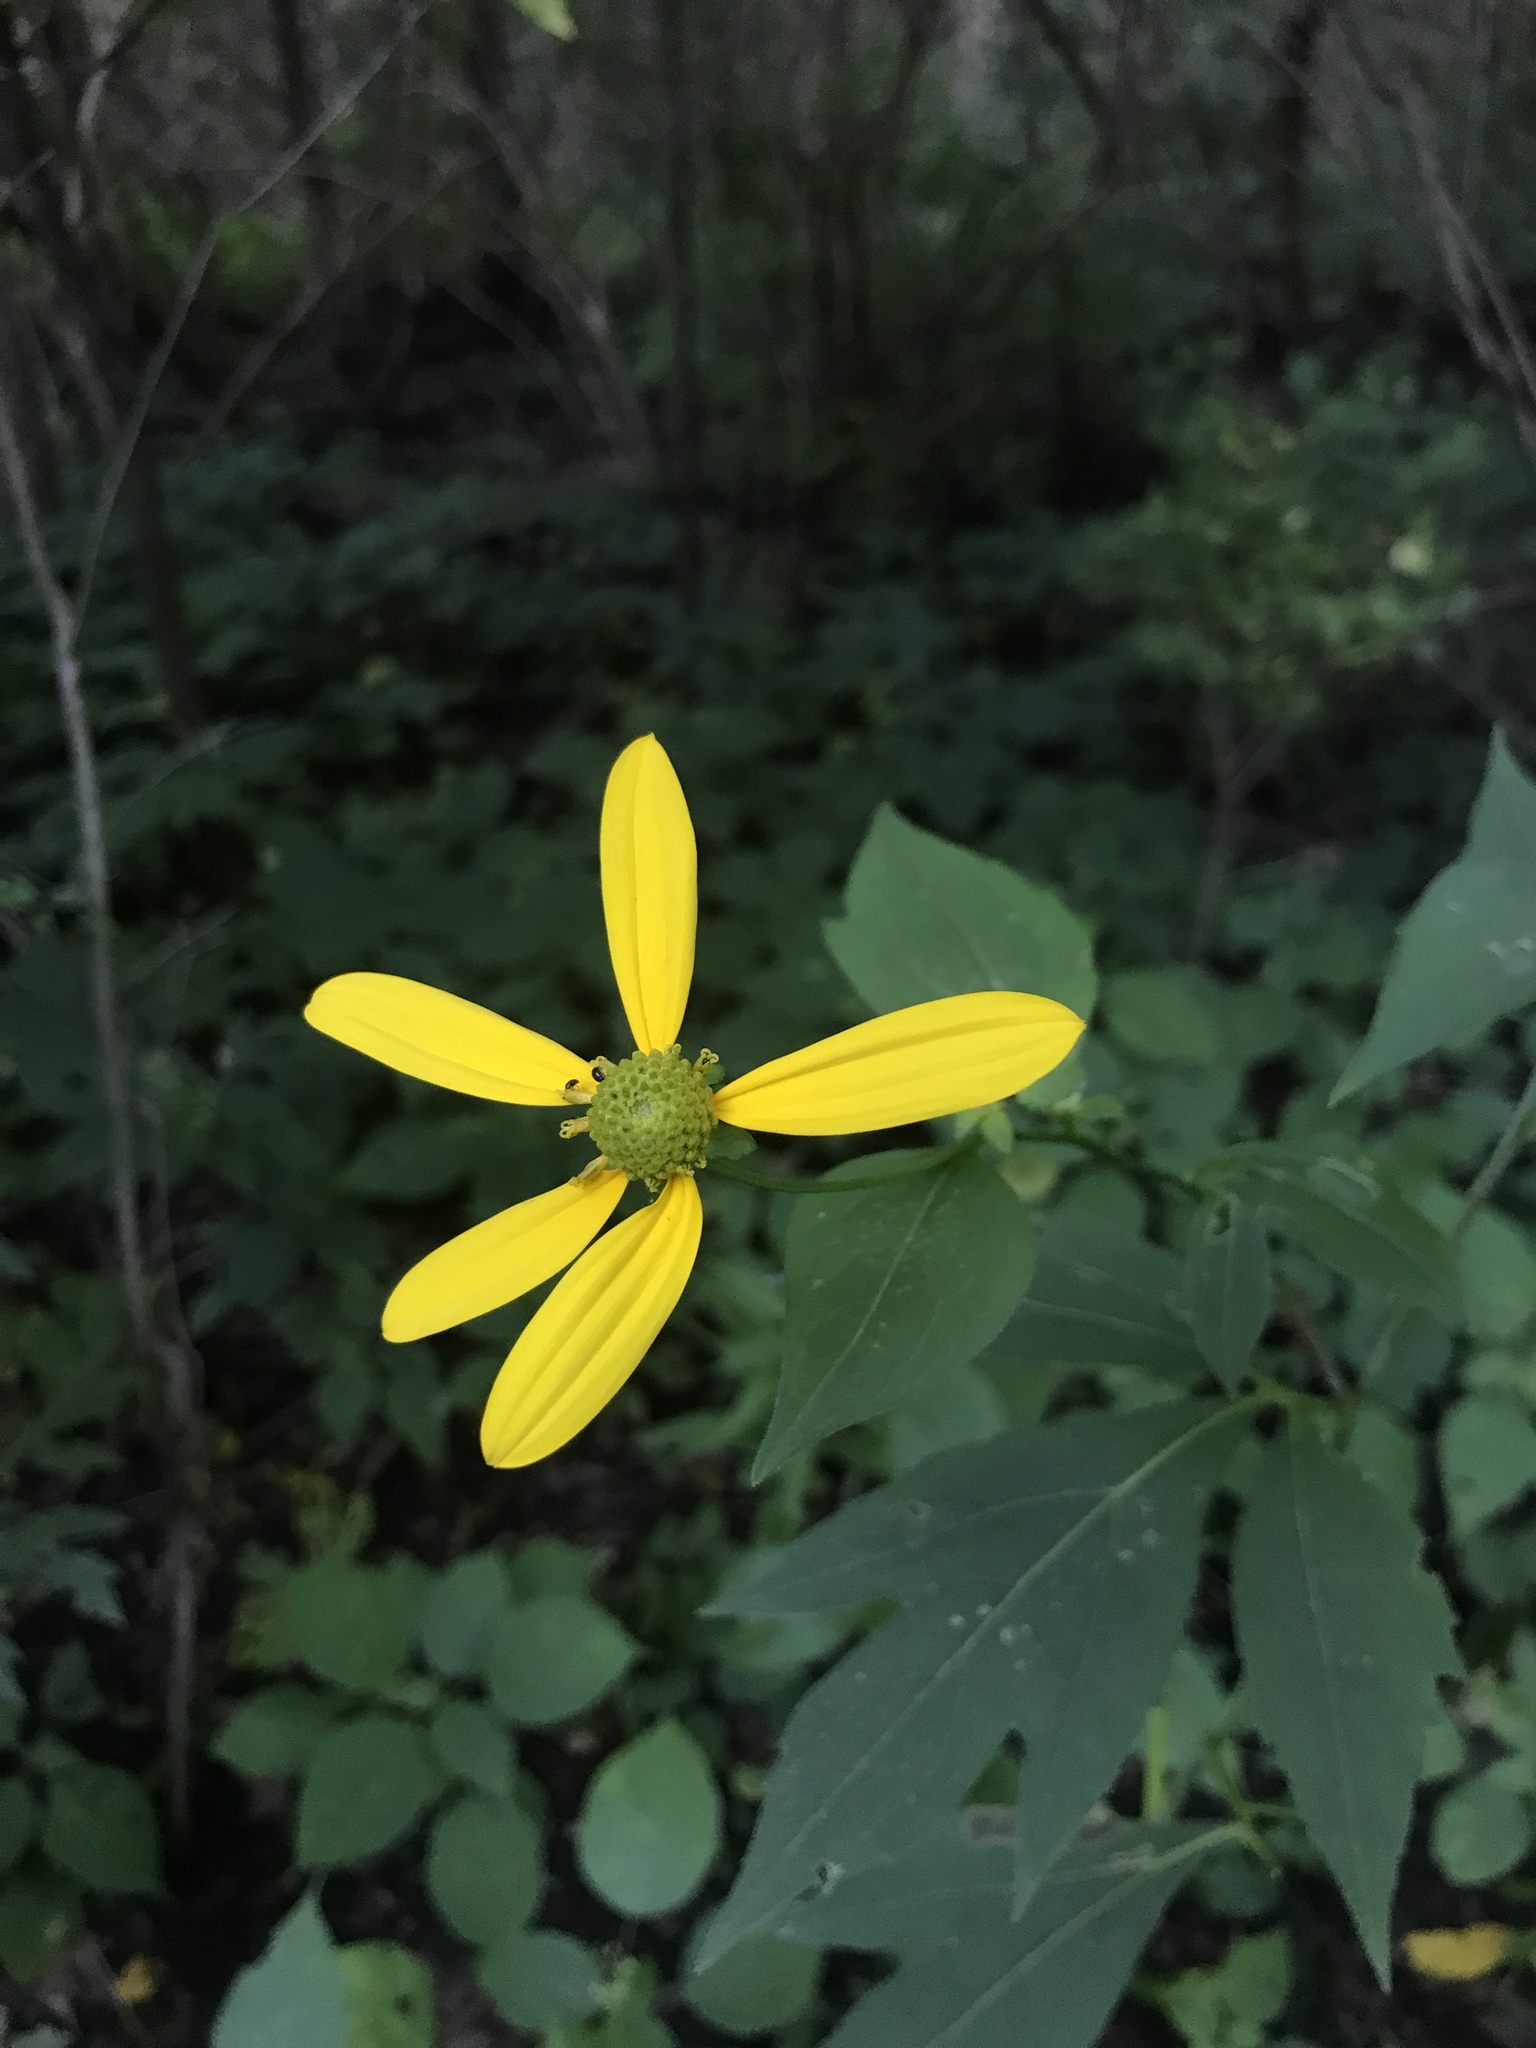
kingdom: Plantae
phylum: Tracheophyta
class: Magnoliopsida
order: Asterales
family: Asteraceae
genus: Rudbeckia
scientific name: Rudbeckia laciniata
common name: Coneflower
